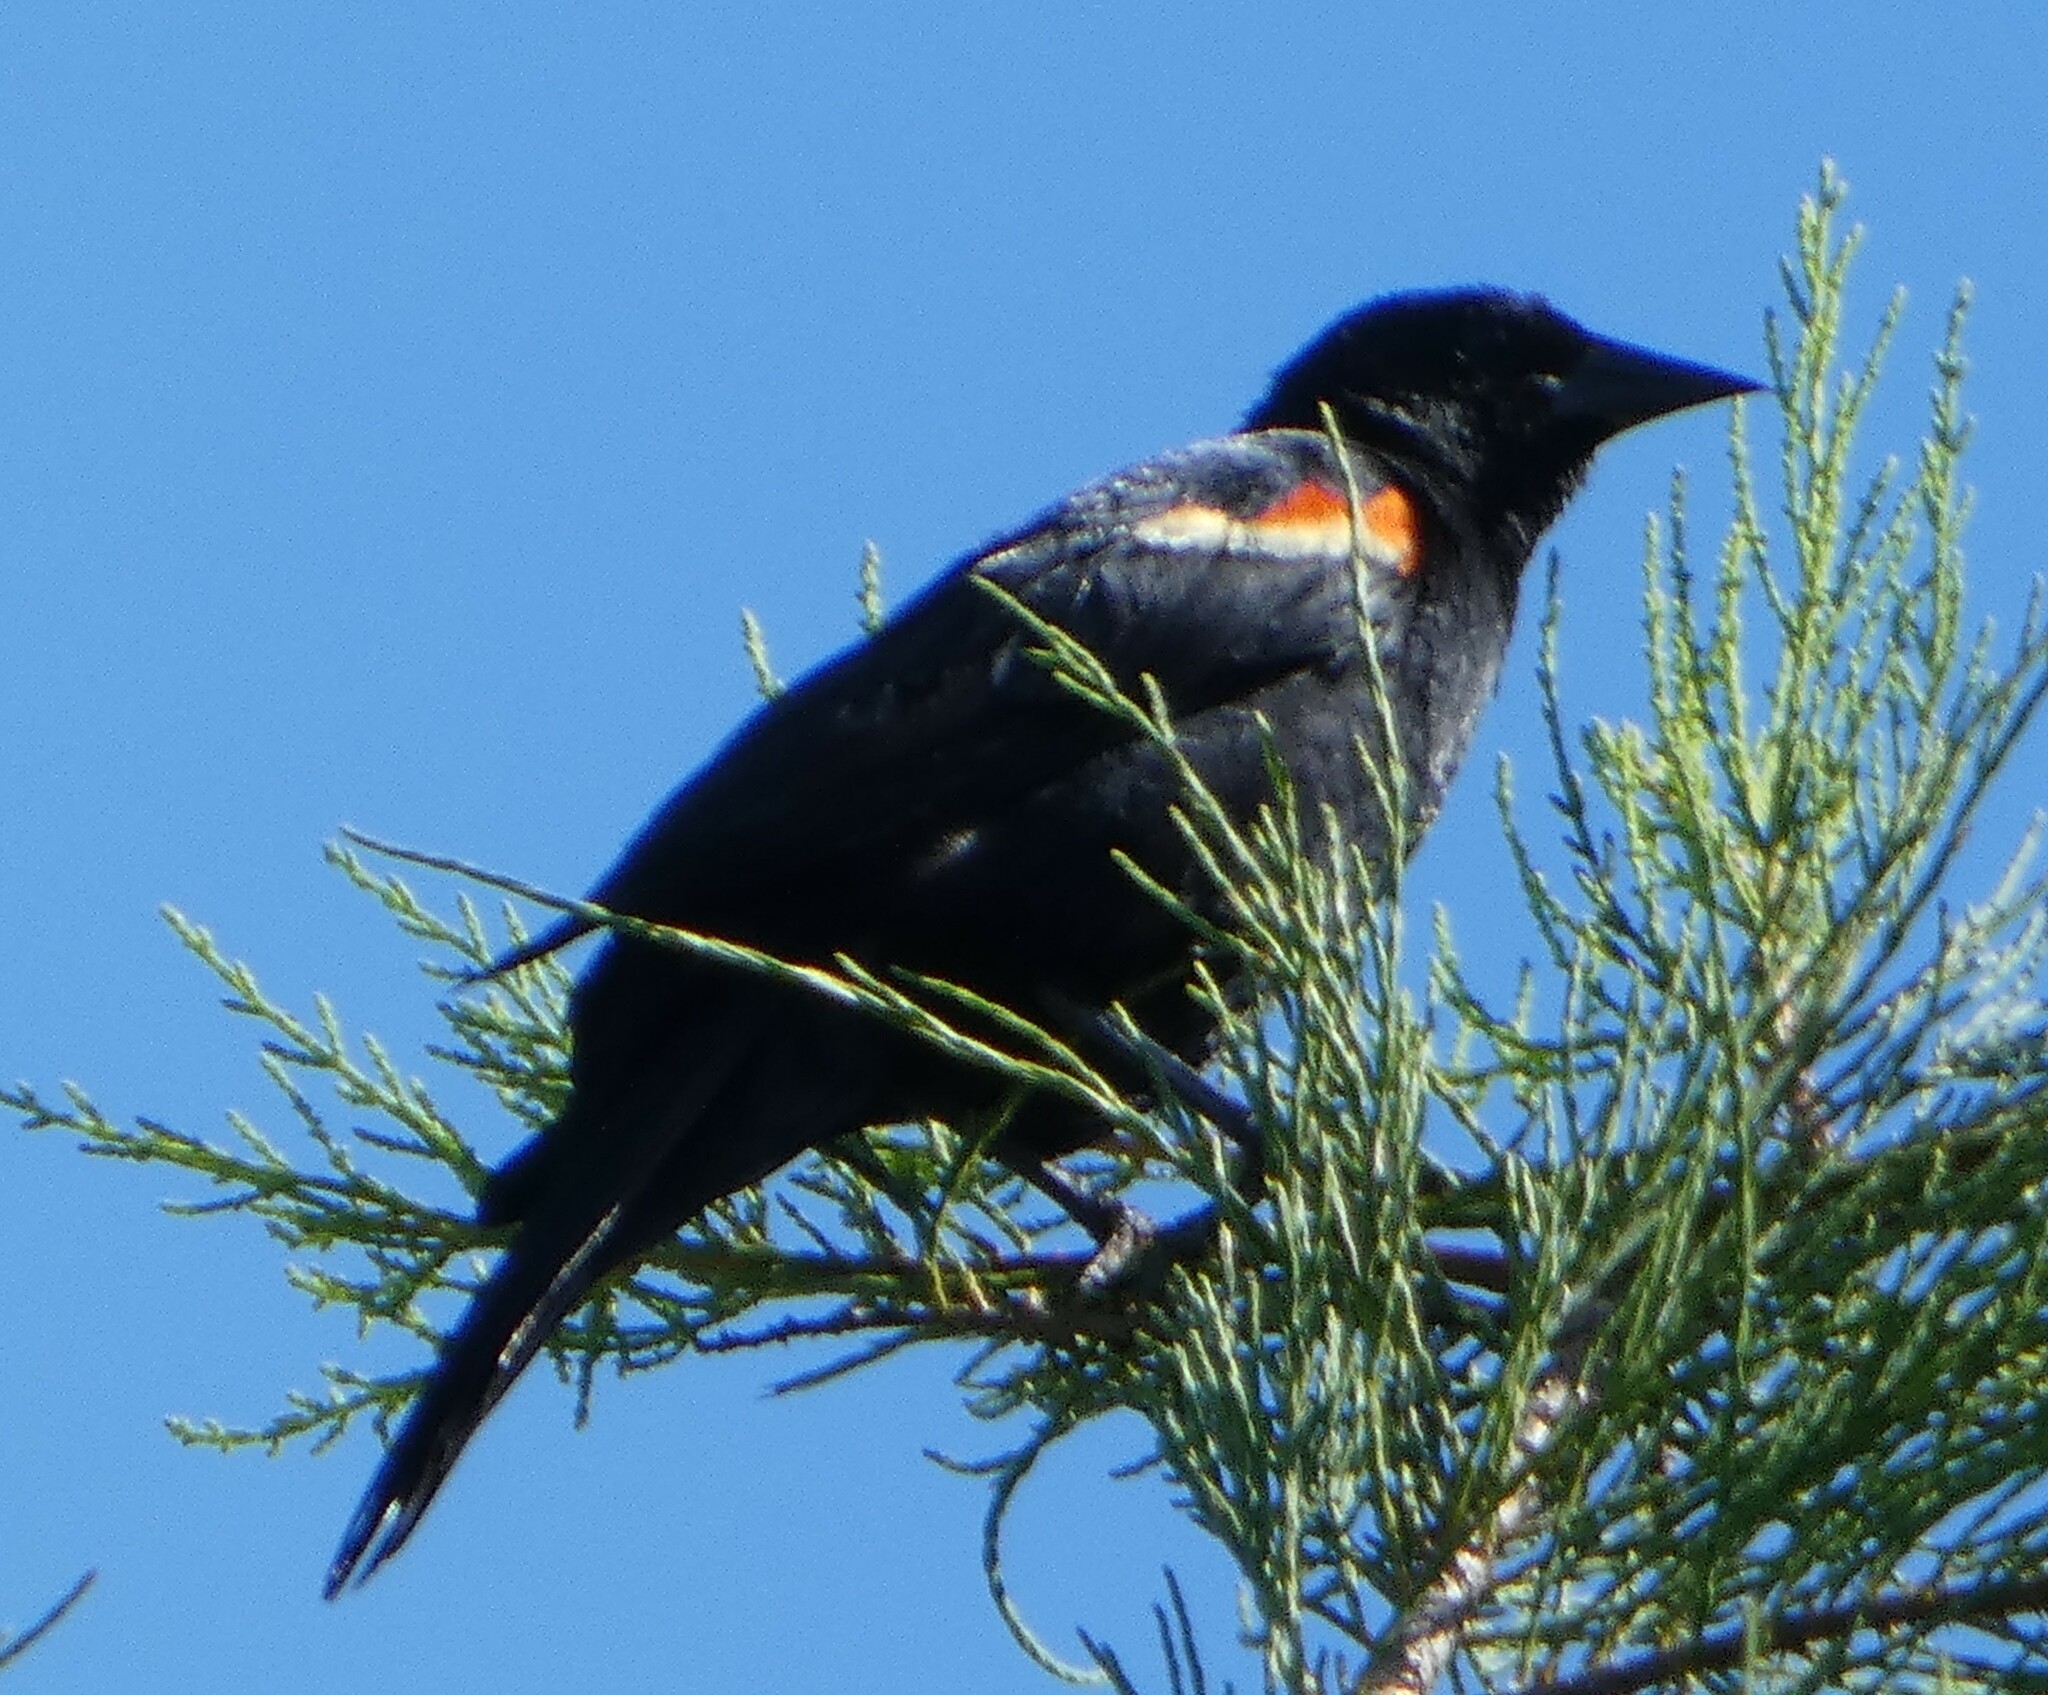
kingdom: Animalia
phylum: Chordata
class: Aves
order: Passeriformes
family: Icteridae
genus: Agelaius
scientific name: Agelaius phoeniceus
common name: Red-winged blackbird
